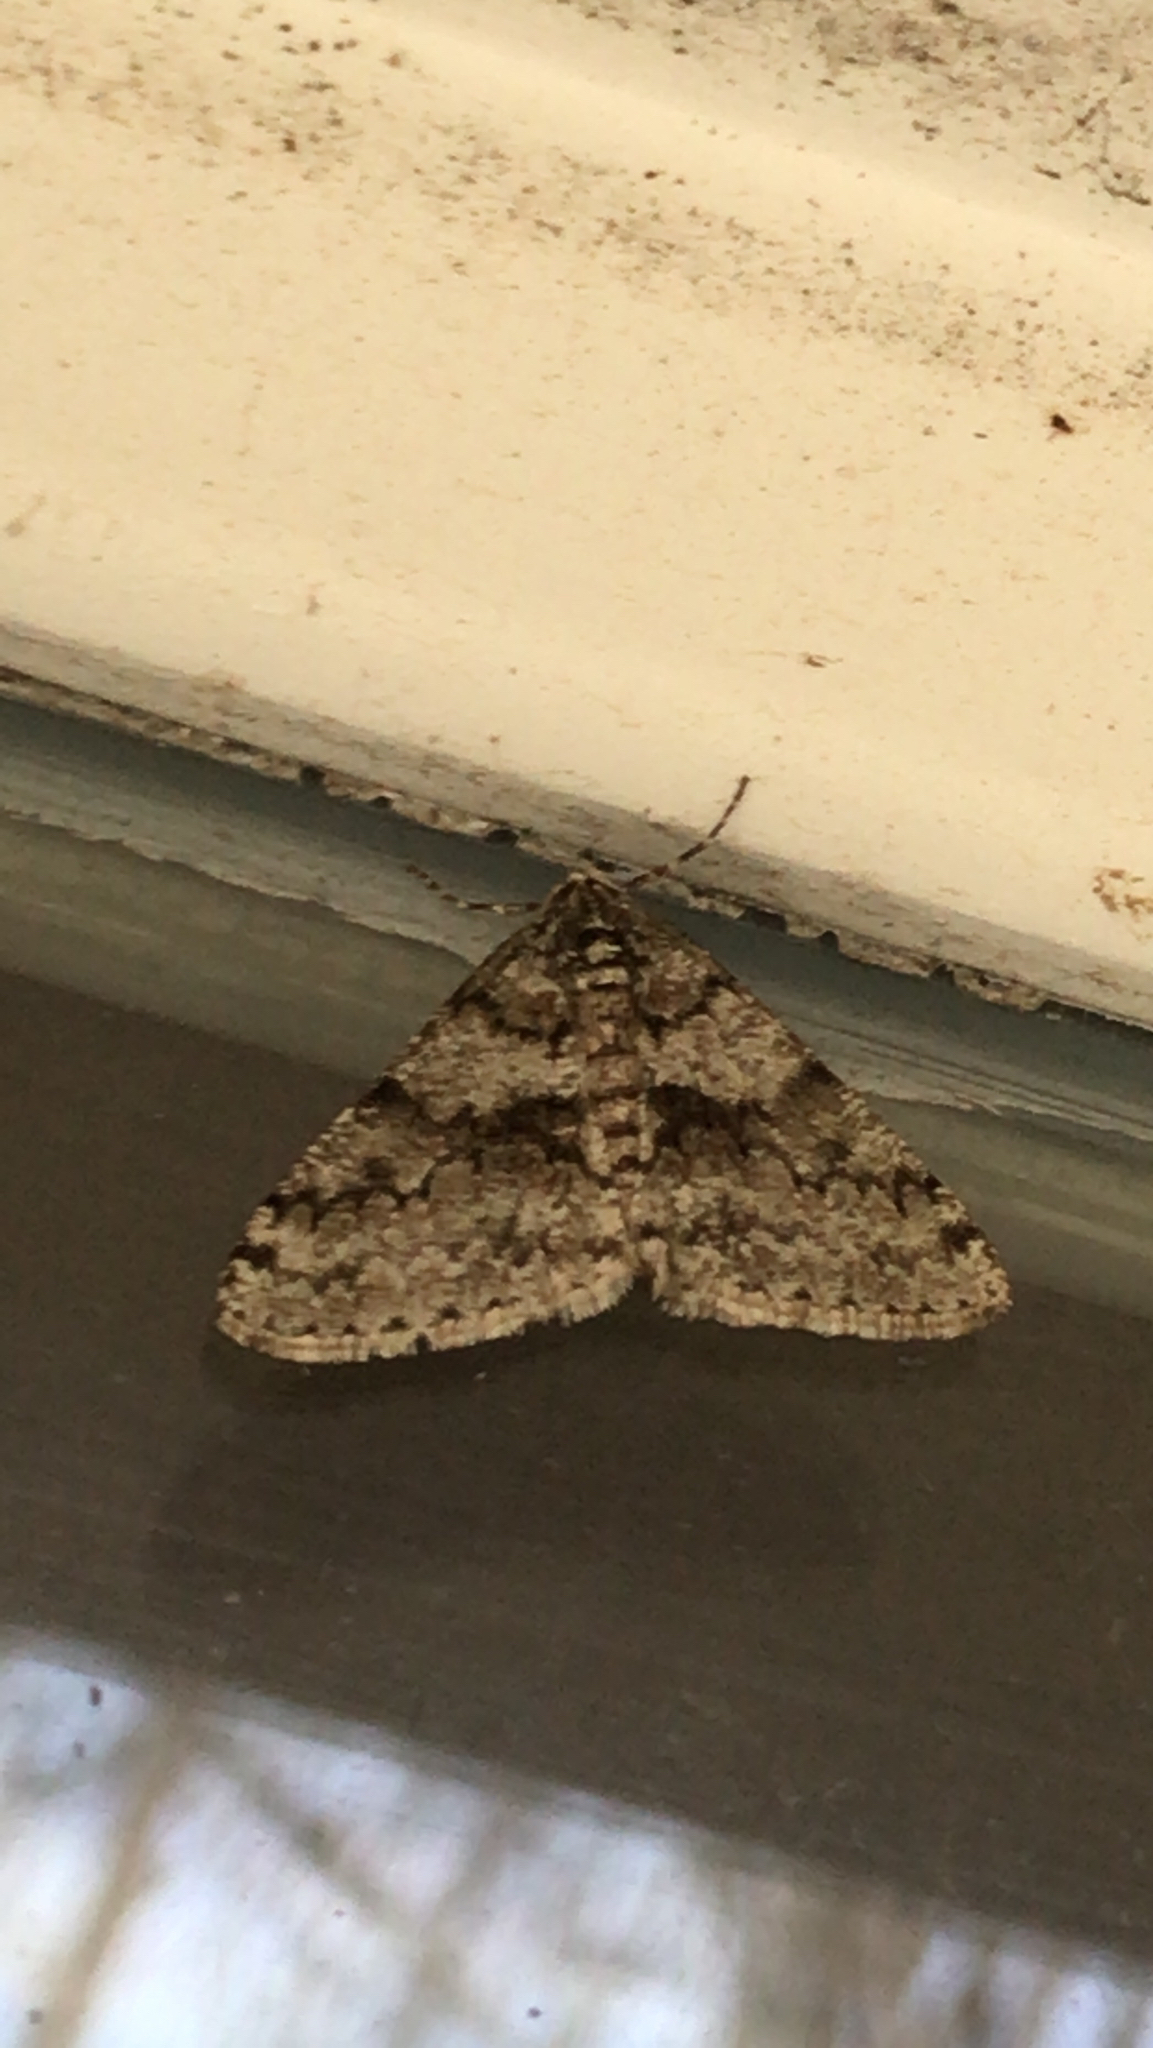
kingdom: Animalia
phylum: Arthropoda
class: Insecta
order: Lepidoptera
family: Geometridae
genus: Phigalia
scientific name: Phigalia denticulata
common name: Toothed phigalia
